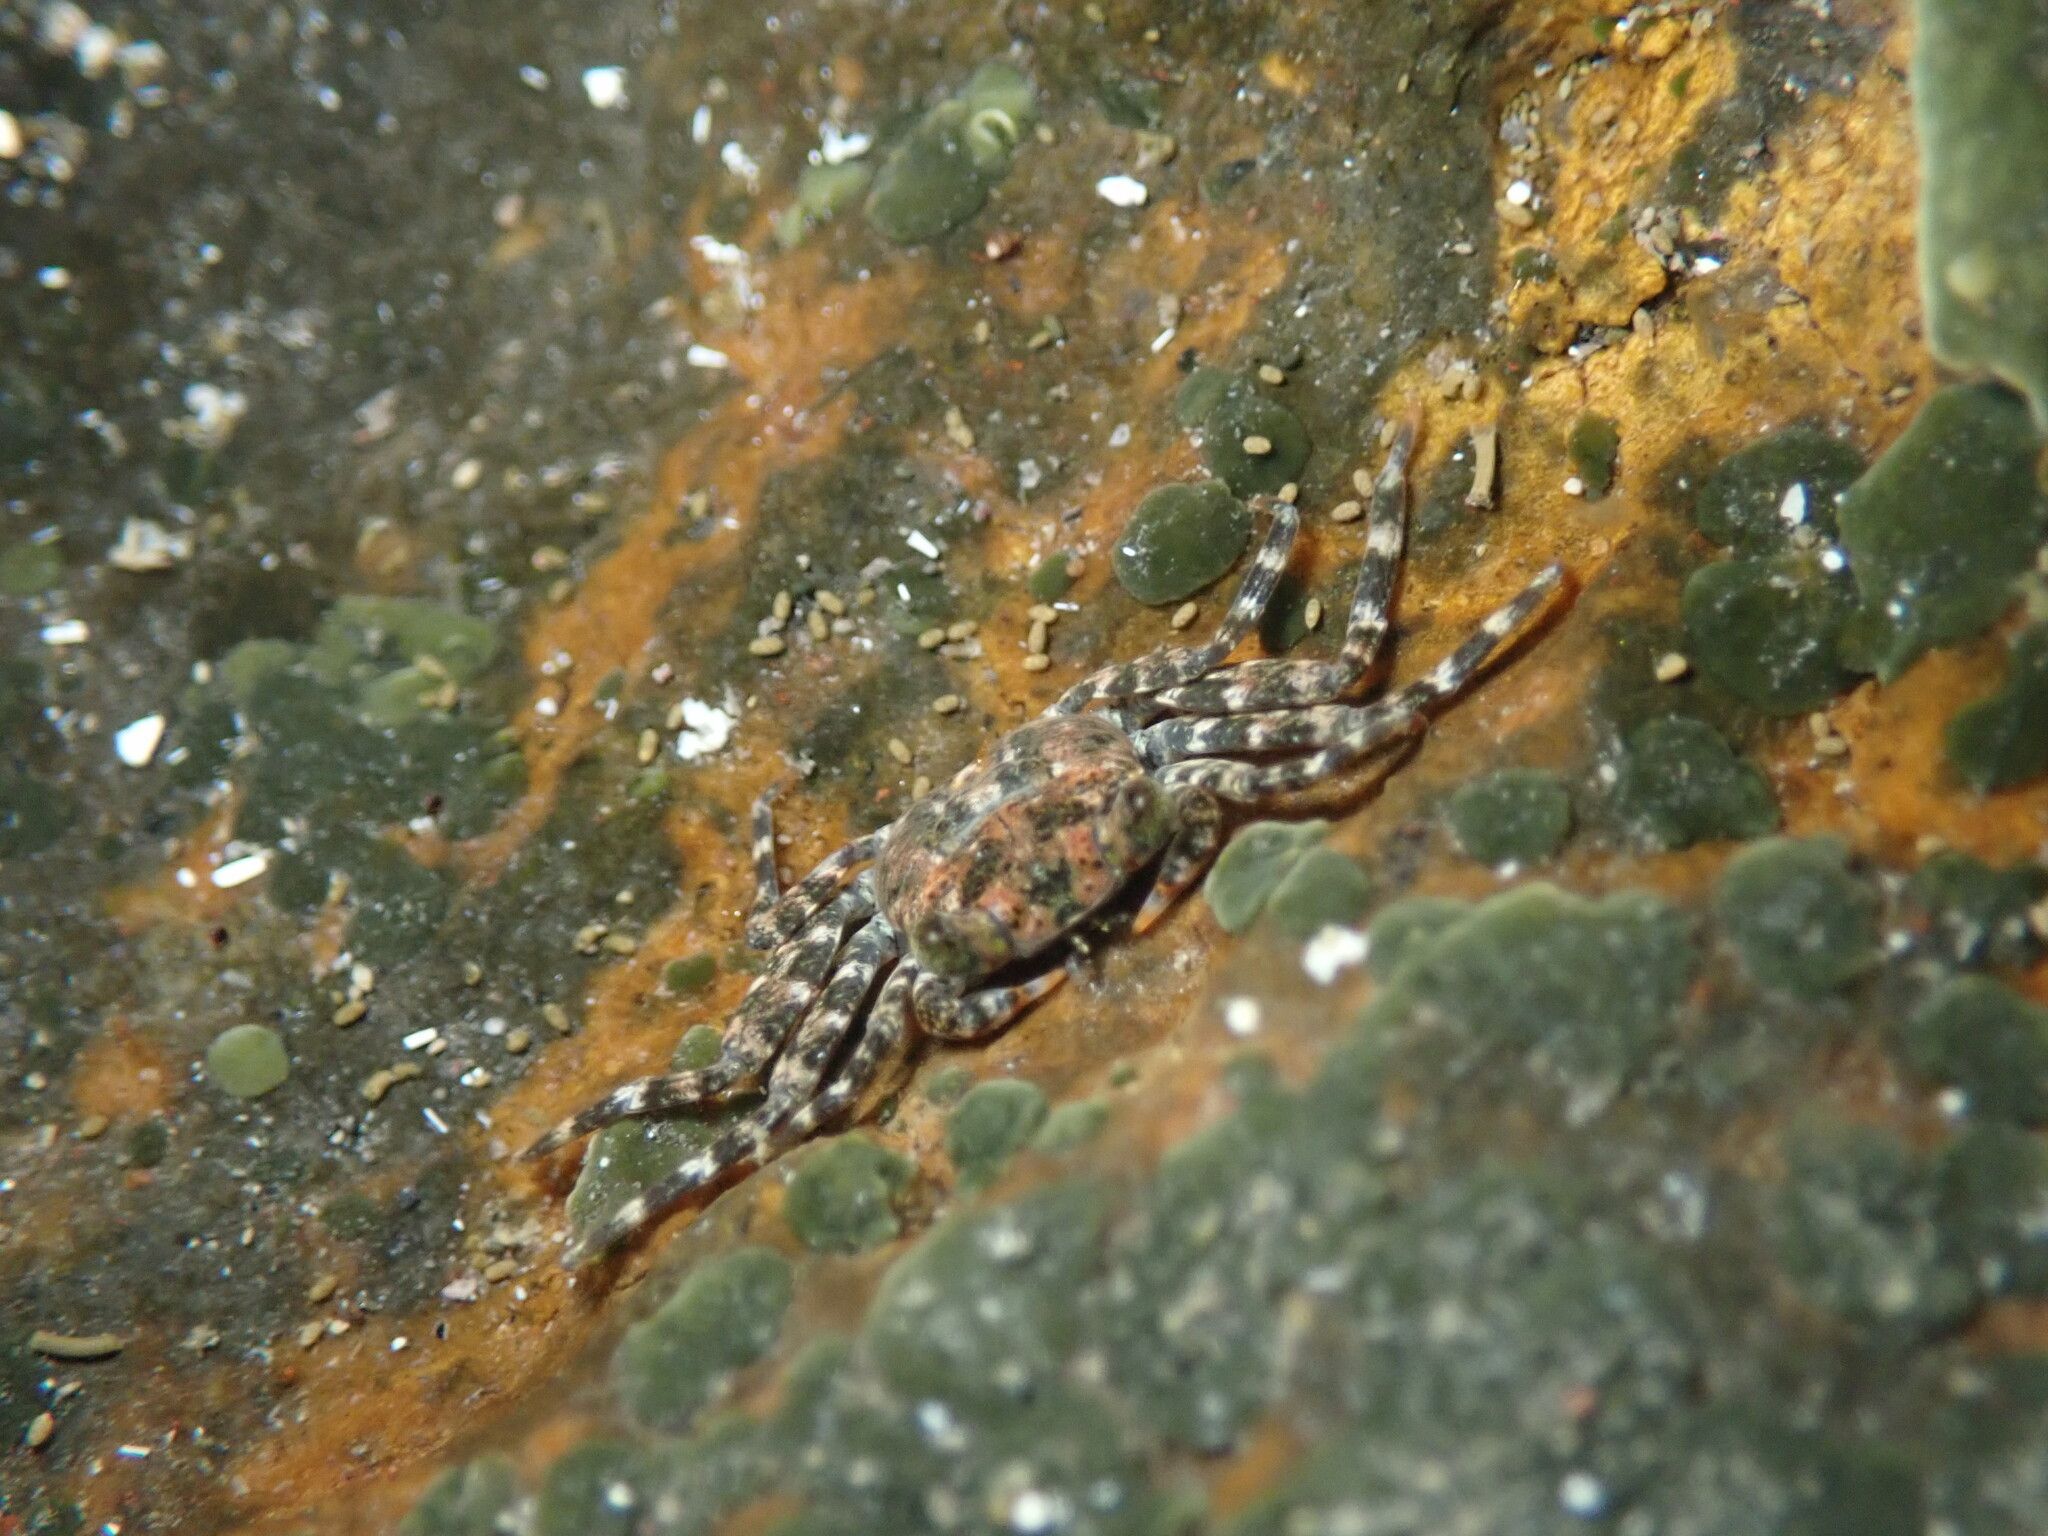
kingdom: Animalia
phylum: Arthropoda
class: Malacostraca
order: Decapoda
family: Plagusiidae
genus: Plagusia
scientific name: Plagusia depressa
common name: Flattened crab
